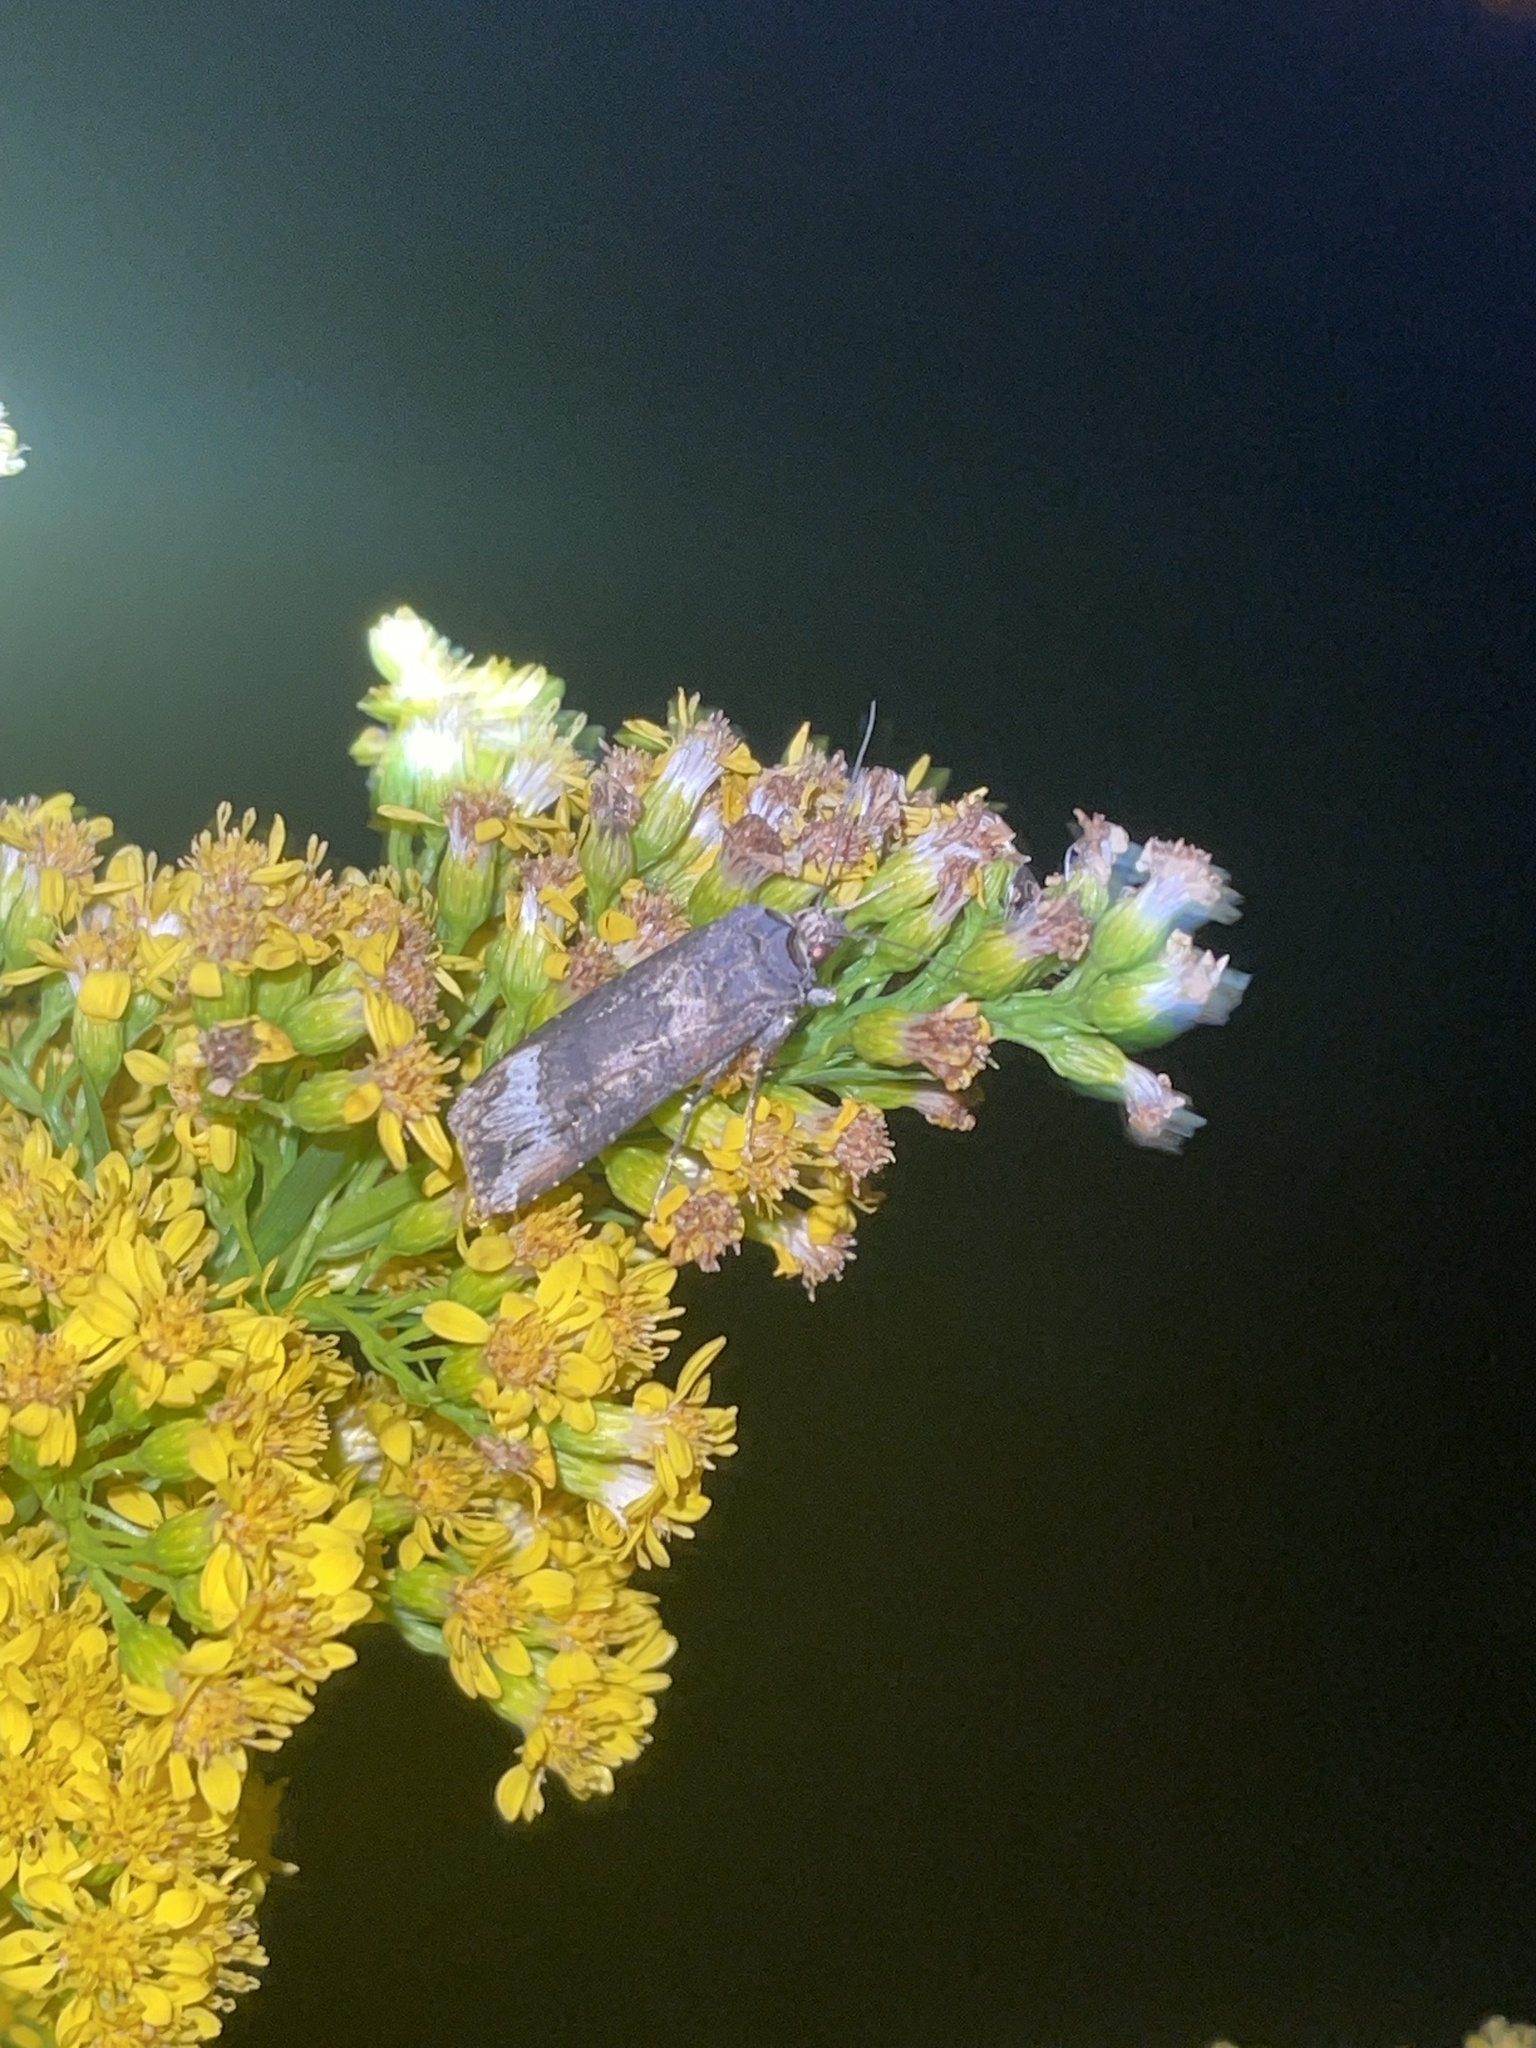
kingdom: Animalia
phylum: Arthropoda
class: Insecta
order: Lepidoptera
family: Noctuidae
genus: Agrotis
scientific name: Agrotis ipsilon
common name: Dark sword-grass
